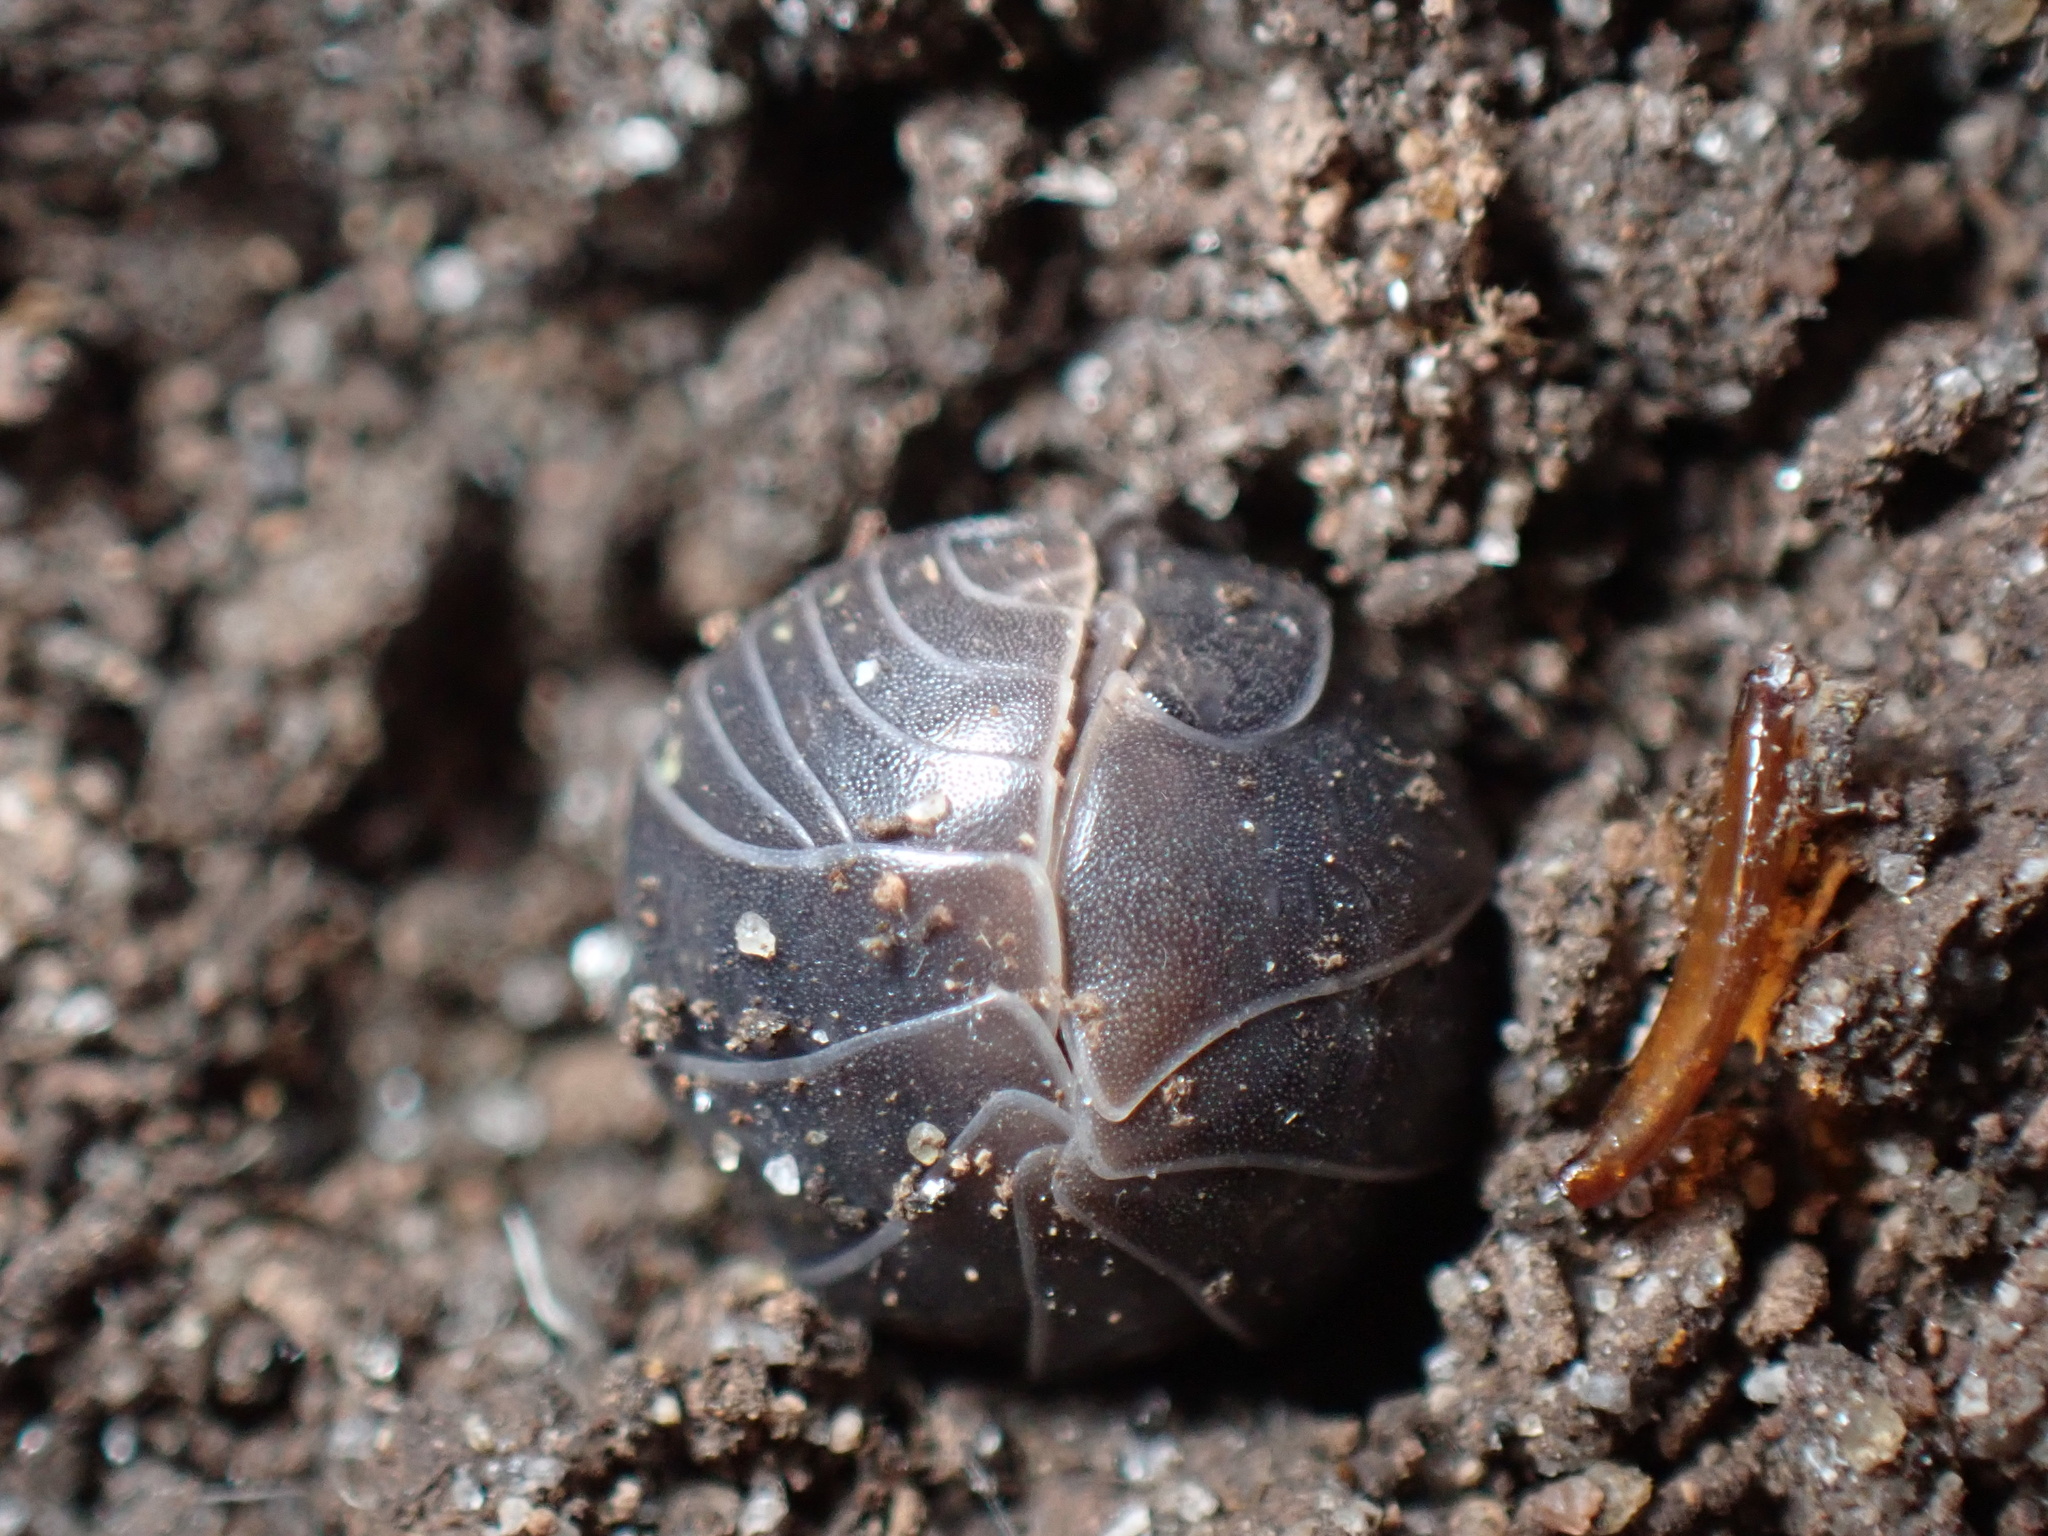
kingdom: Animalia
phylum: Arthropoda
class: Malacostraca
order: Isopoda
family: Armadillidiidae
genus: Armadillidium
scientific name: Armadillidium vulgare
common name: Common pill woodlouse
